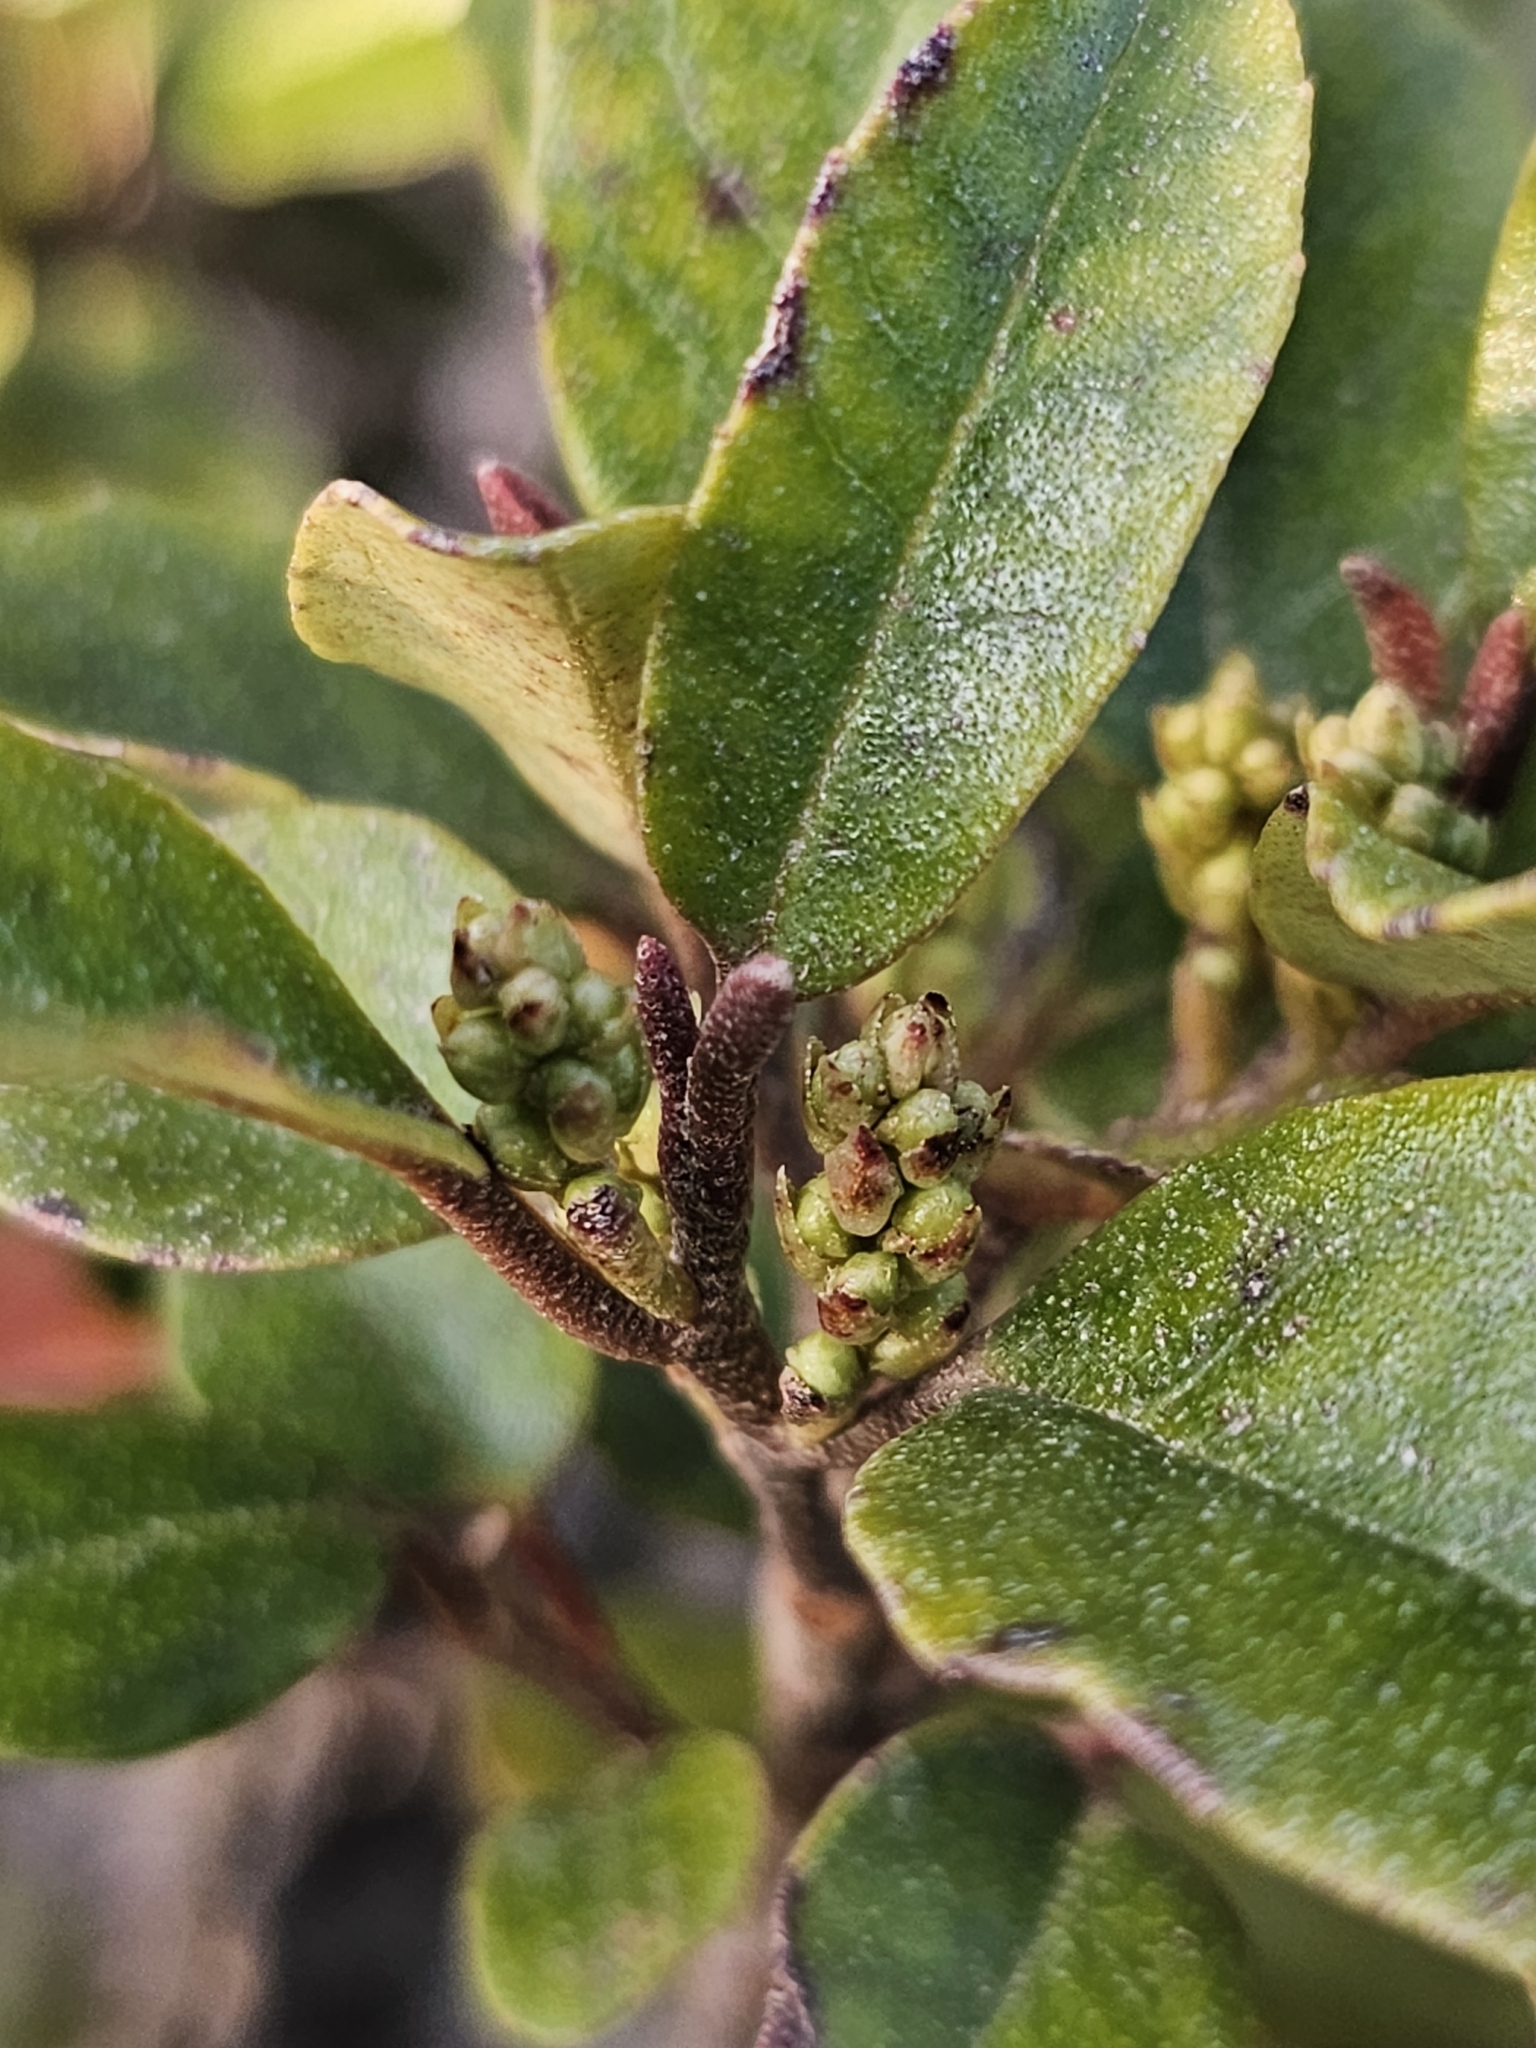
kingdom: Plantae
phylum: Tracheophyta
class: Magnoliopsida
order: Paracryphiales
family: Paracryphiaceae
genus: Quintinia
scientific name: Quintinia serrata
